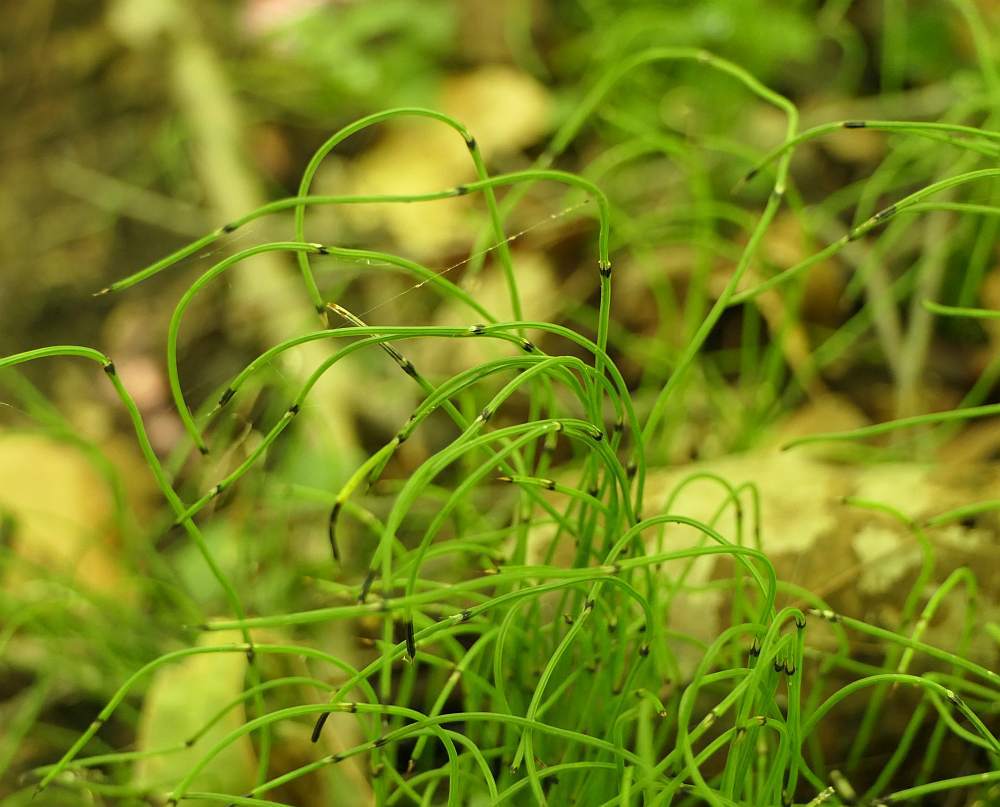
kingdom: Plantae
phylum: Tracheophyta
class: Polypodiopsida
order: Equisetales
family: Equisetaceae
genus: Equisetum
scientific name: Equisetum scirpoides
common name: Delicate horsetail
